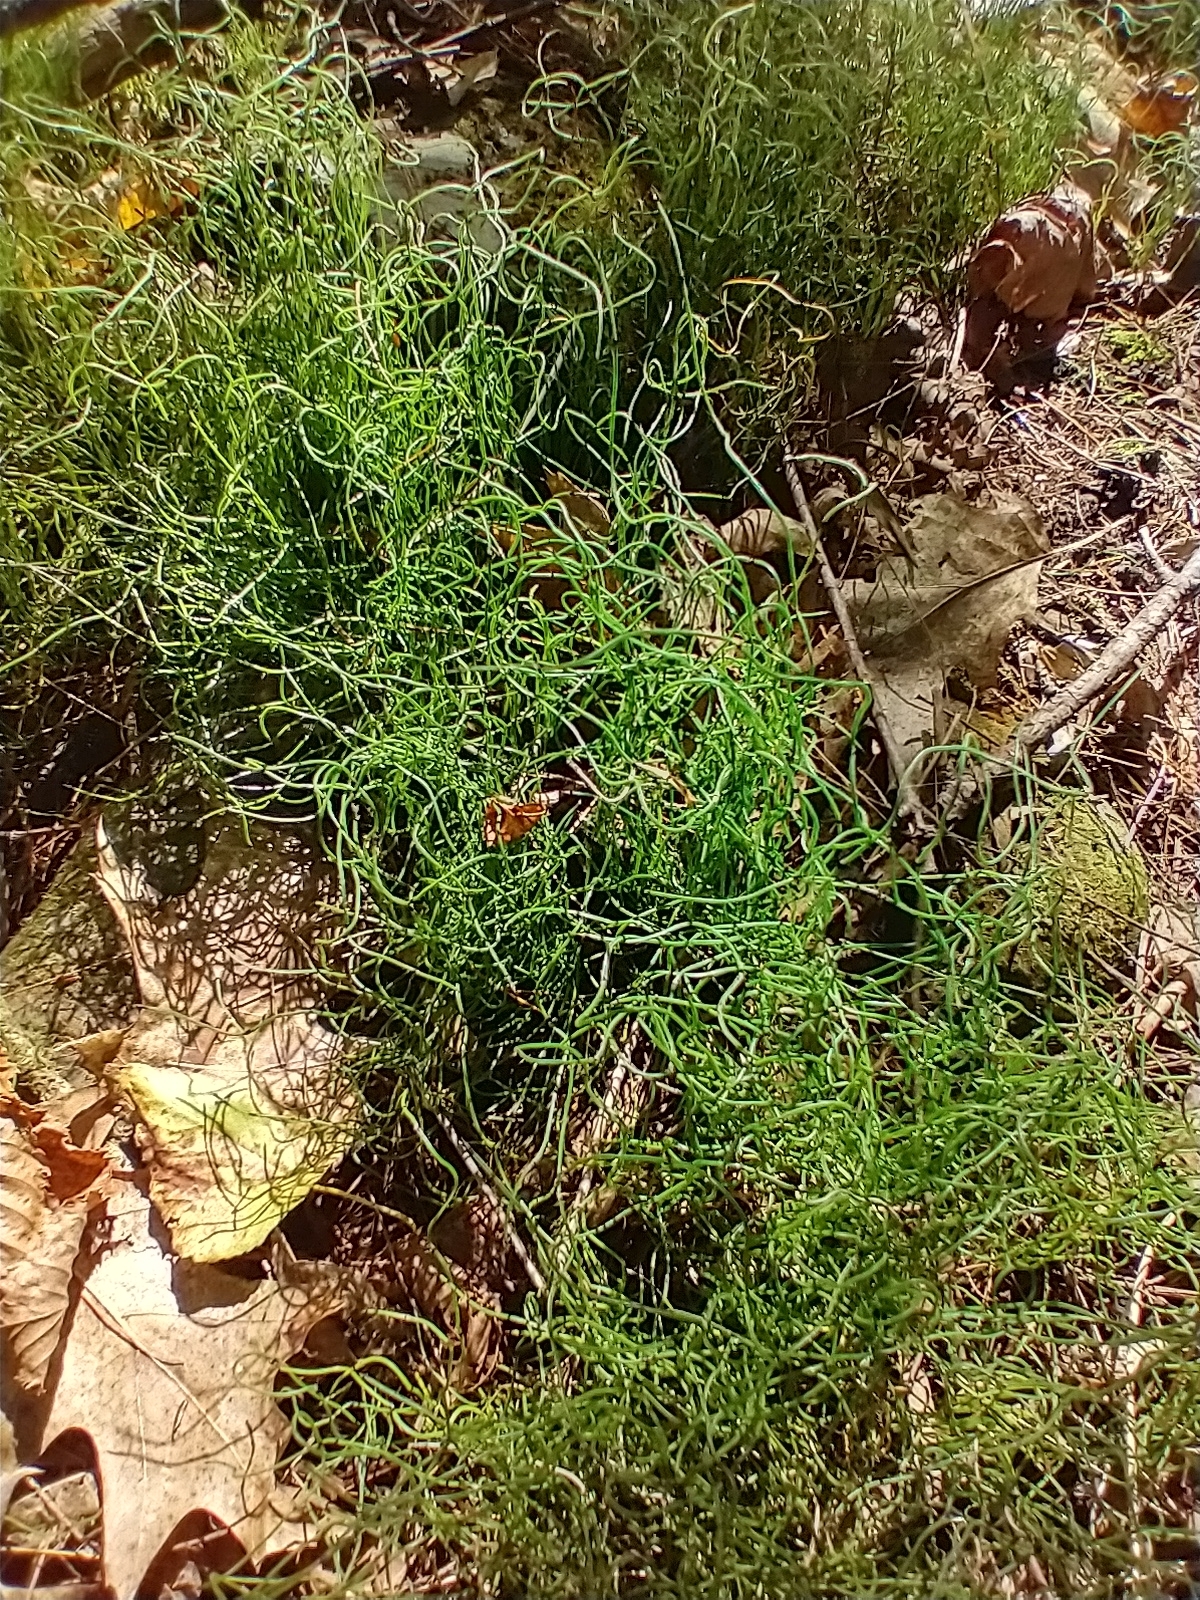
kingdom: Plantae
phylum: Tracheophyta
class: Polypodiopsida
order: Equisetales
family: Equisetaceae
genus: Equisetum
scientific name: Equisetum scirpoides
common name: Delicate horsetail
